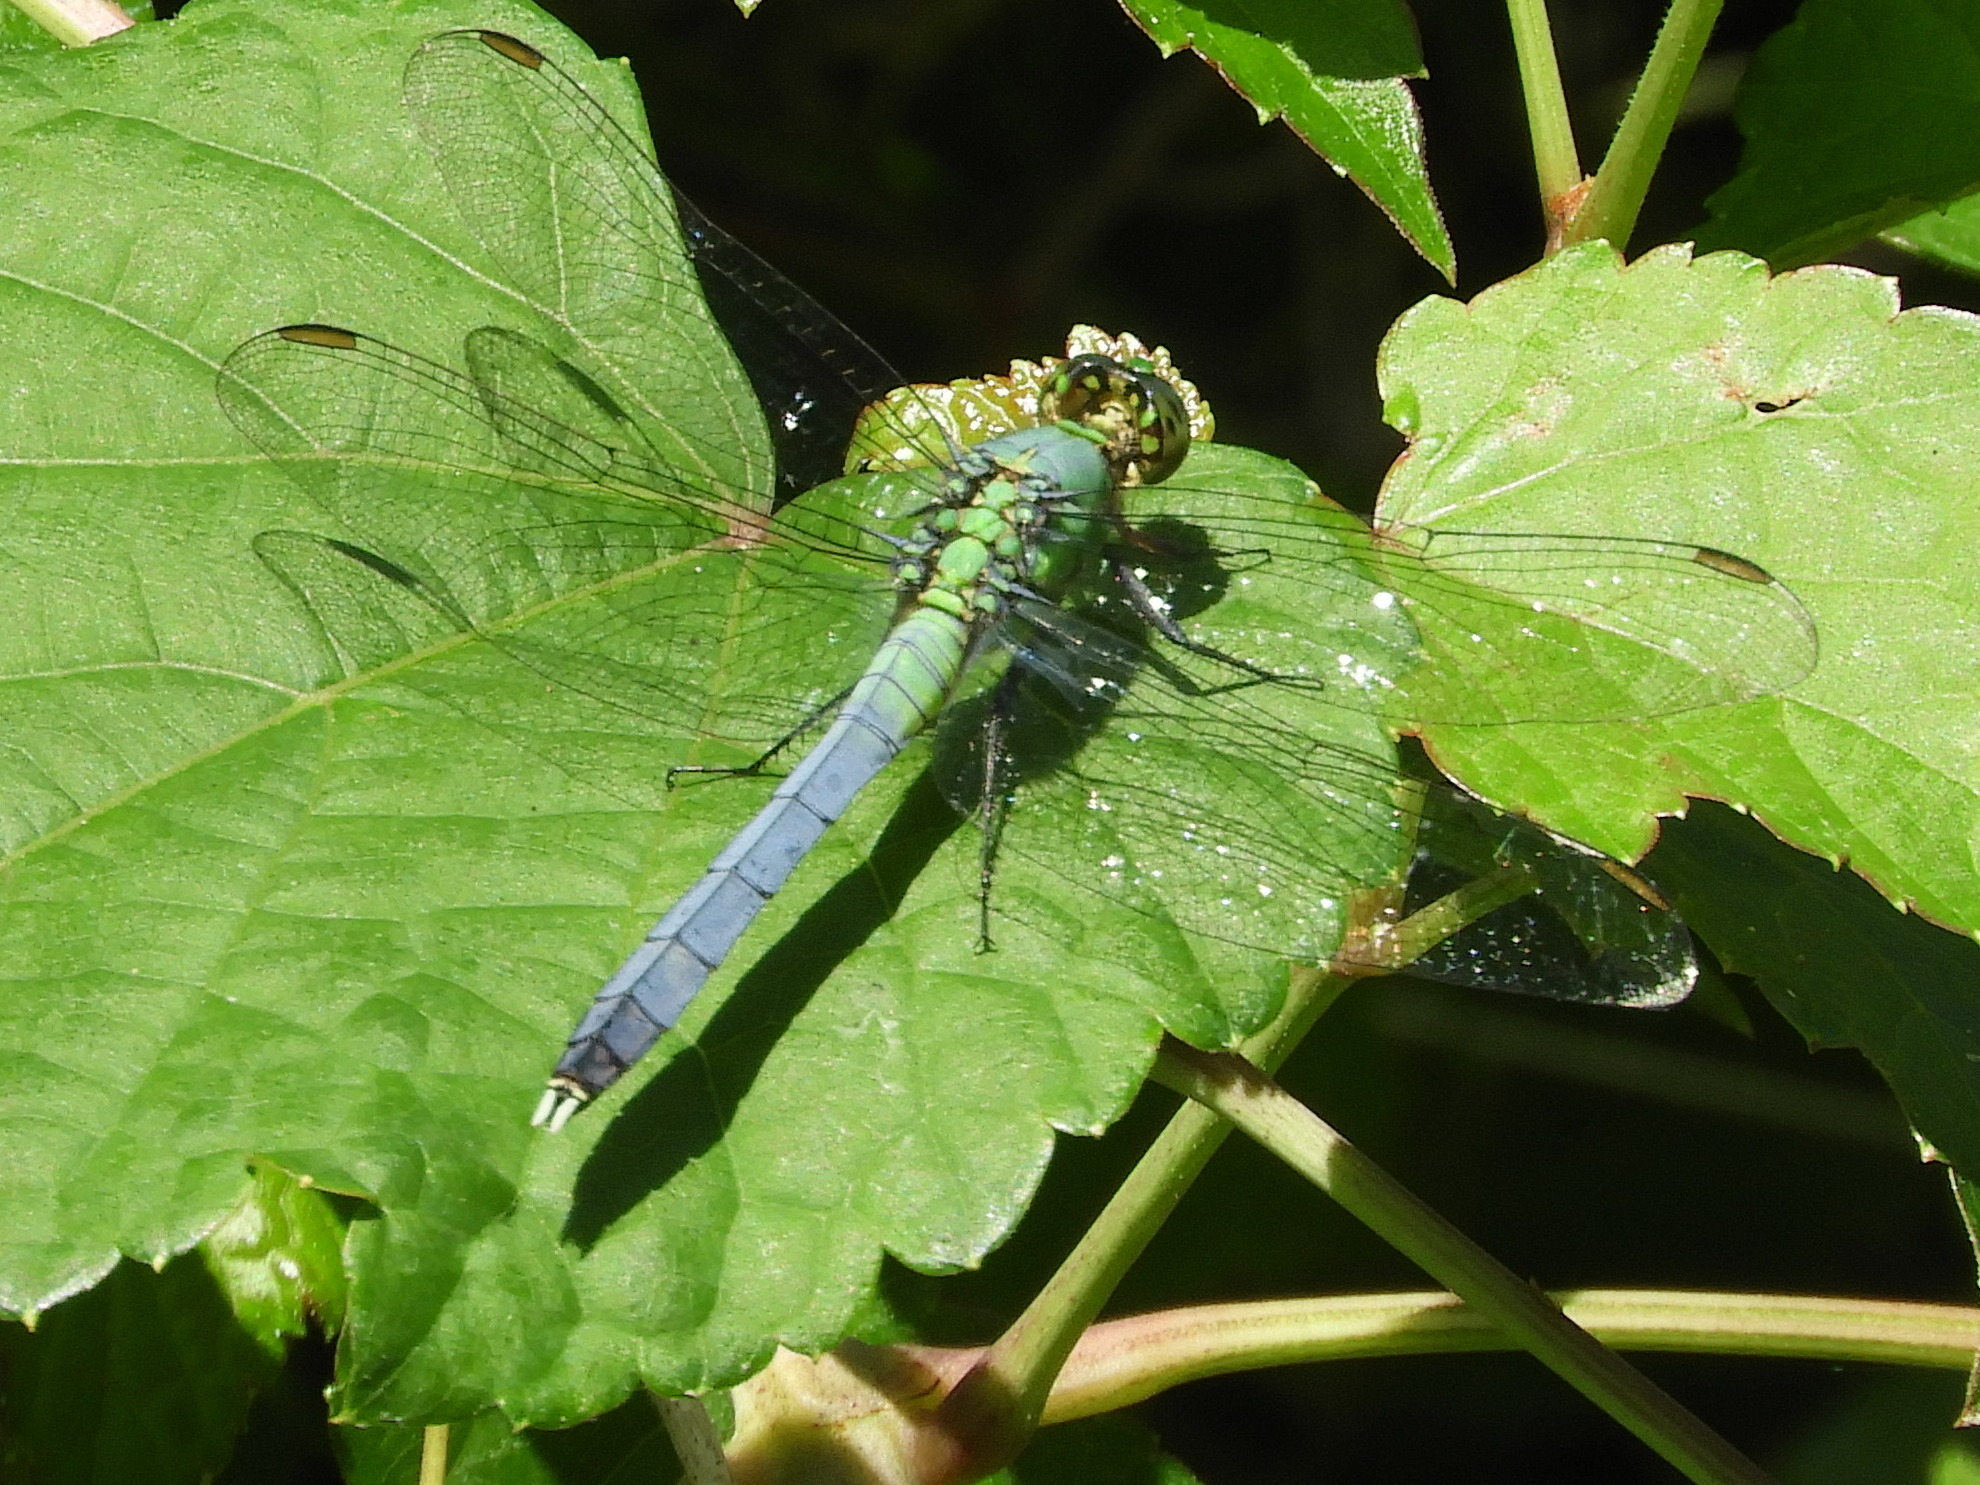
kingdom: Animalia
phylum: Arthropoda
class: Insecta
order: Odonata
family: Libellulidae
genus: Erythemis
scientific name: Erythemis simplicicollis
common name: Eastern pondhawk
